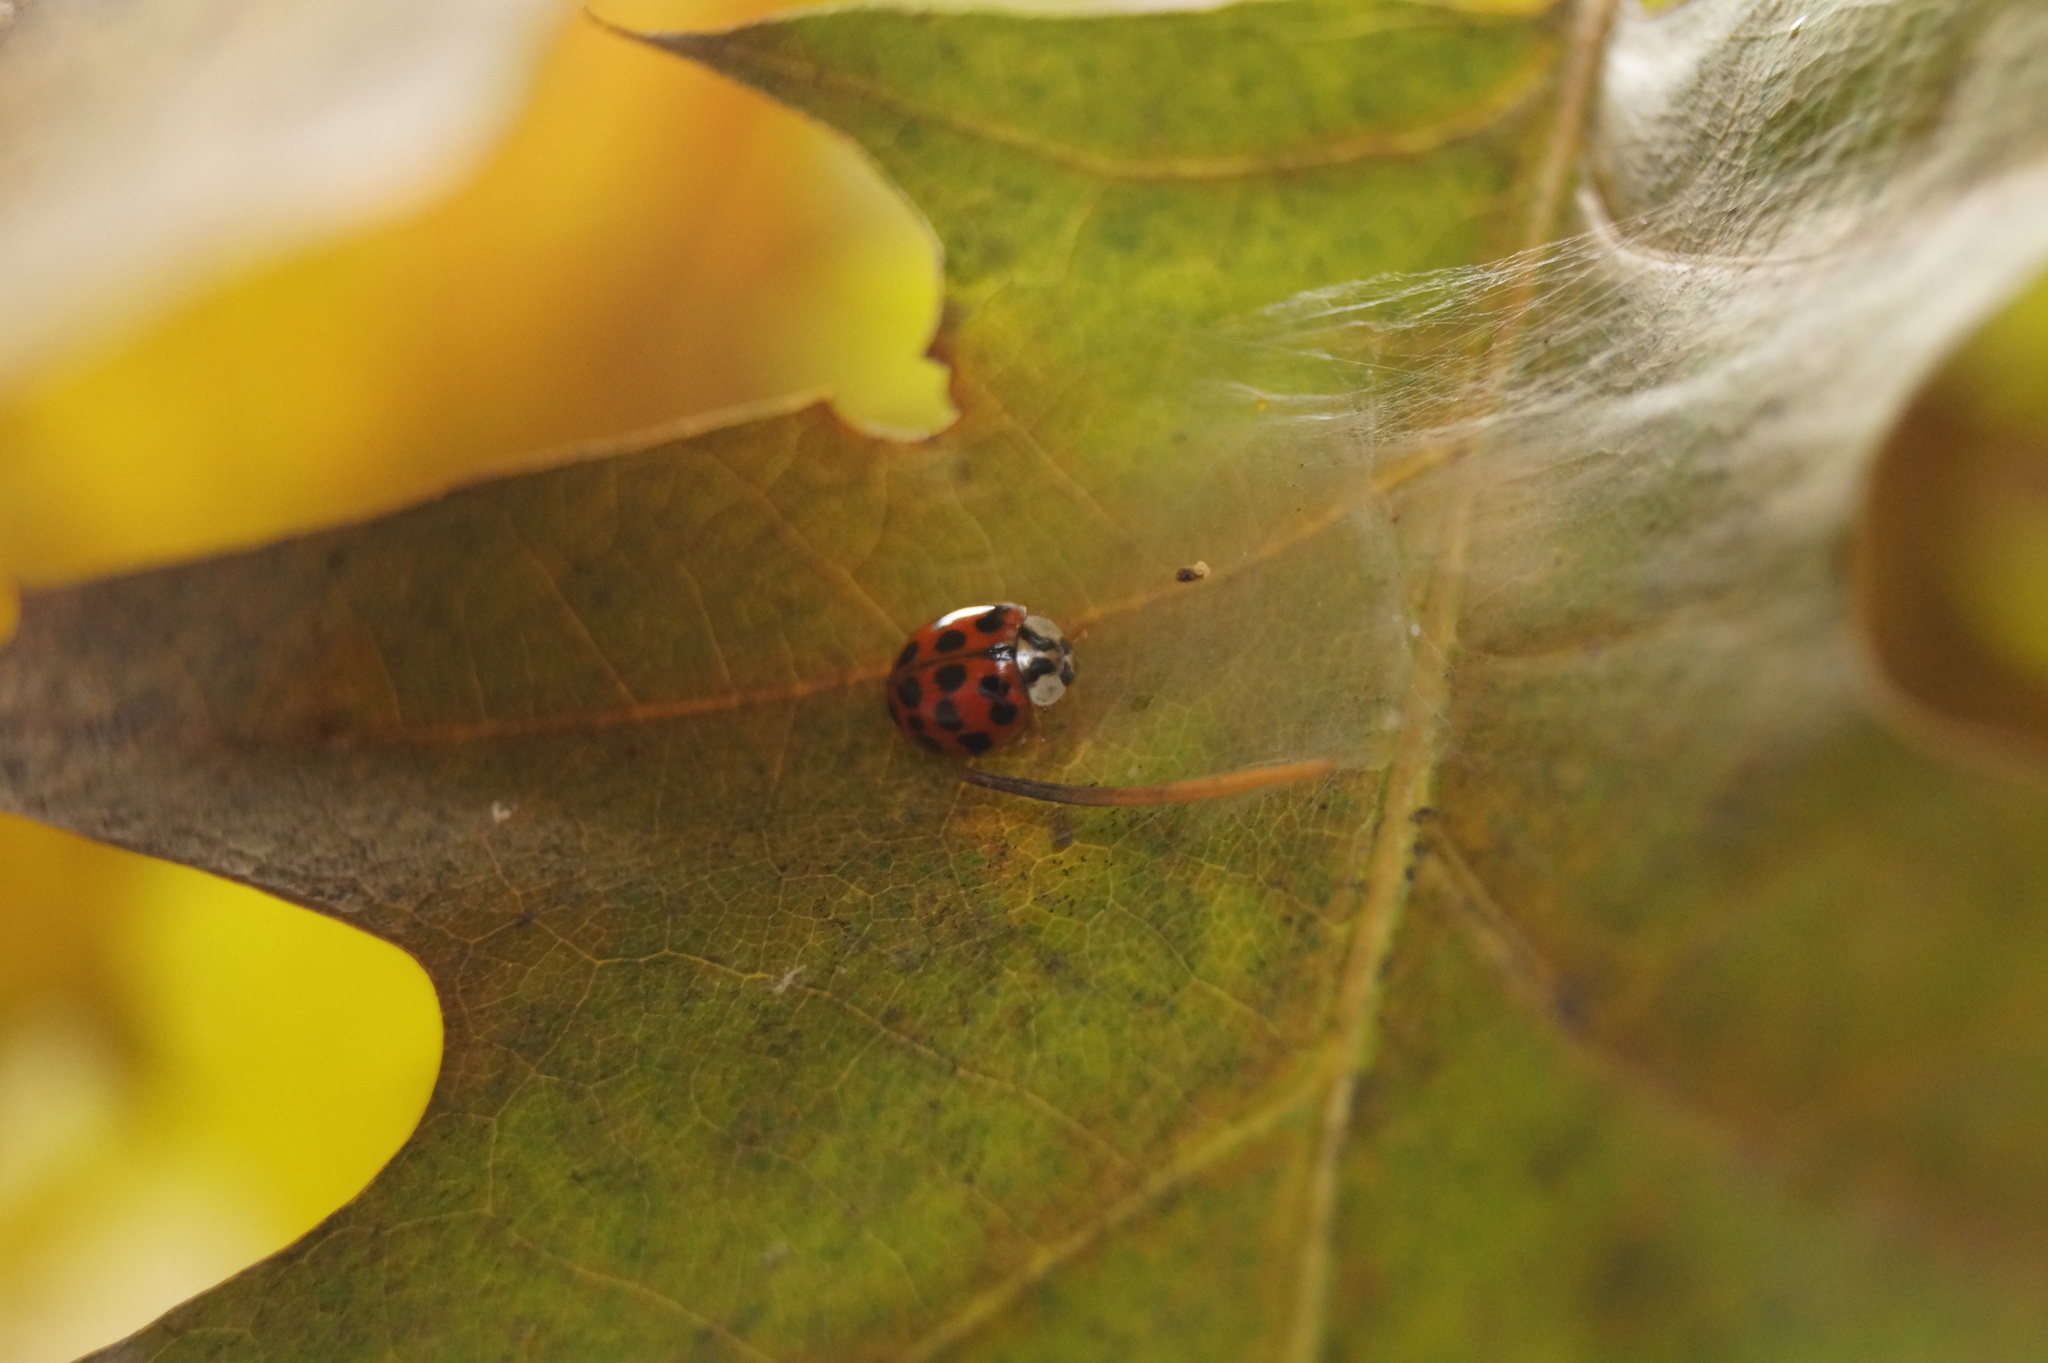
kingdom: Animalia
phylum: Arthropoda
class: Insecta
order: Coleoptera
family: Coccinellidae
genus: Harmonia
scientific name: Harmonia axyridis
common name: Harlequin ladybird
